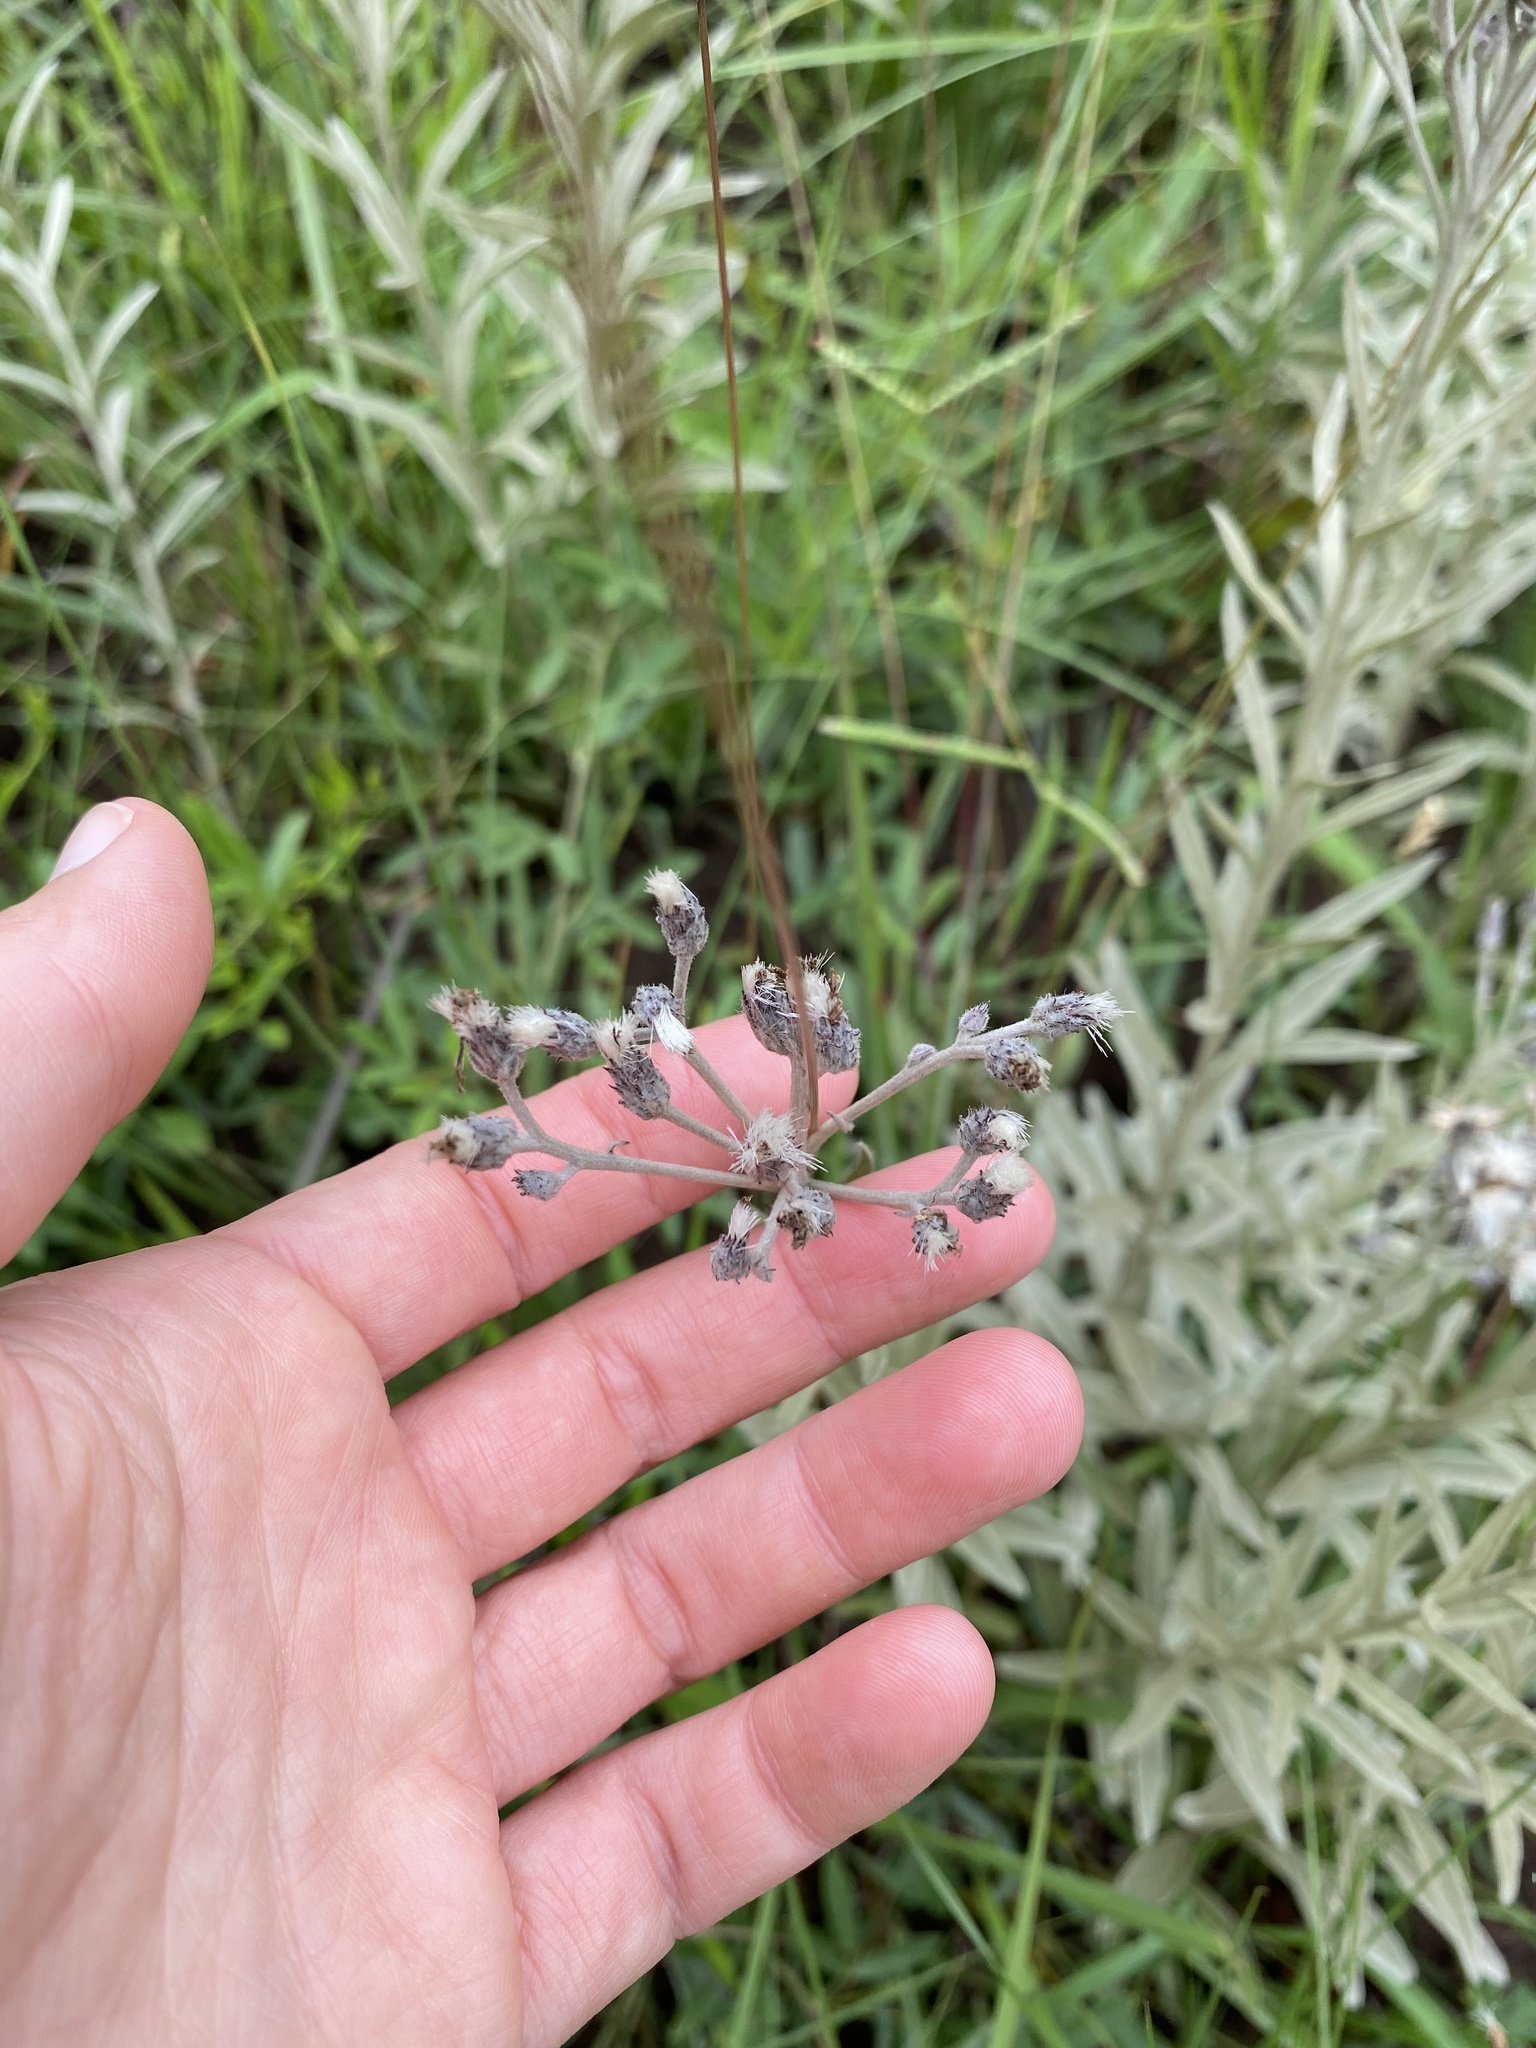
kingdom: Plantae
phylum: Tracheophyta
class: Magnoliopsida
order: Asterales
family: Asteraceae
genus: Hilliardiella
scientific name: Hilliardiella aristata
